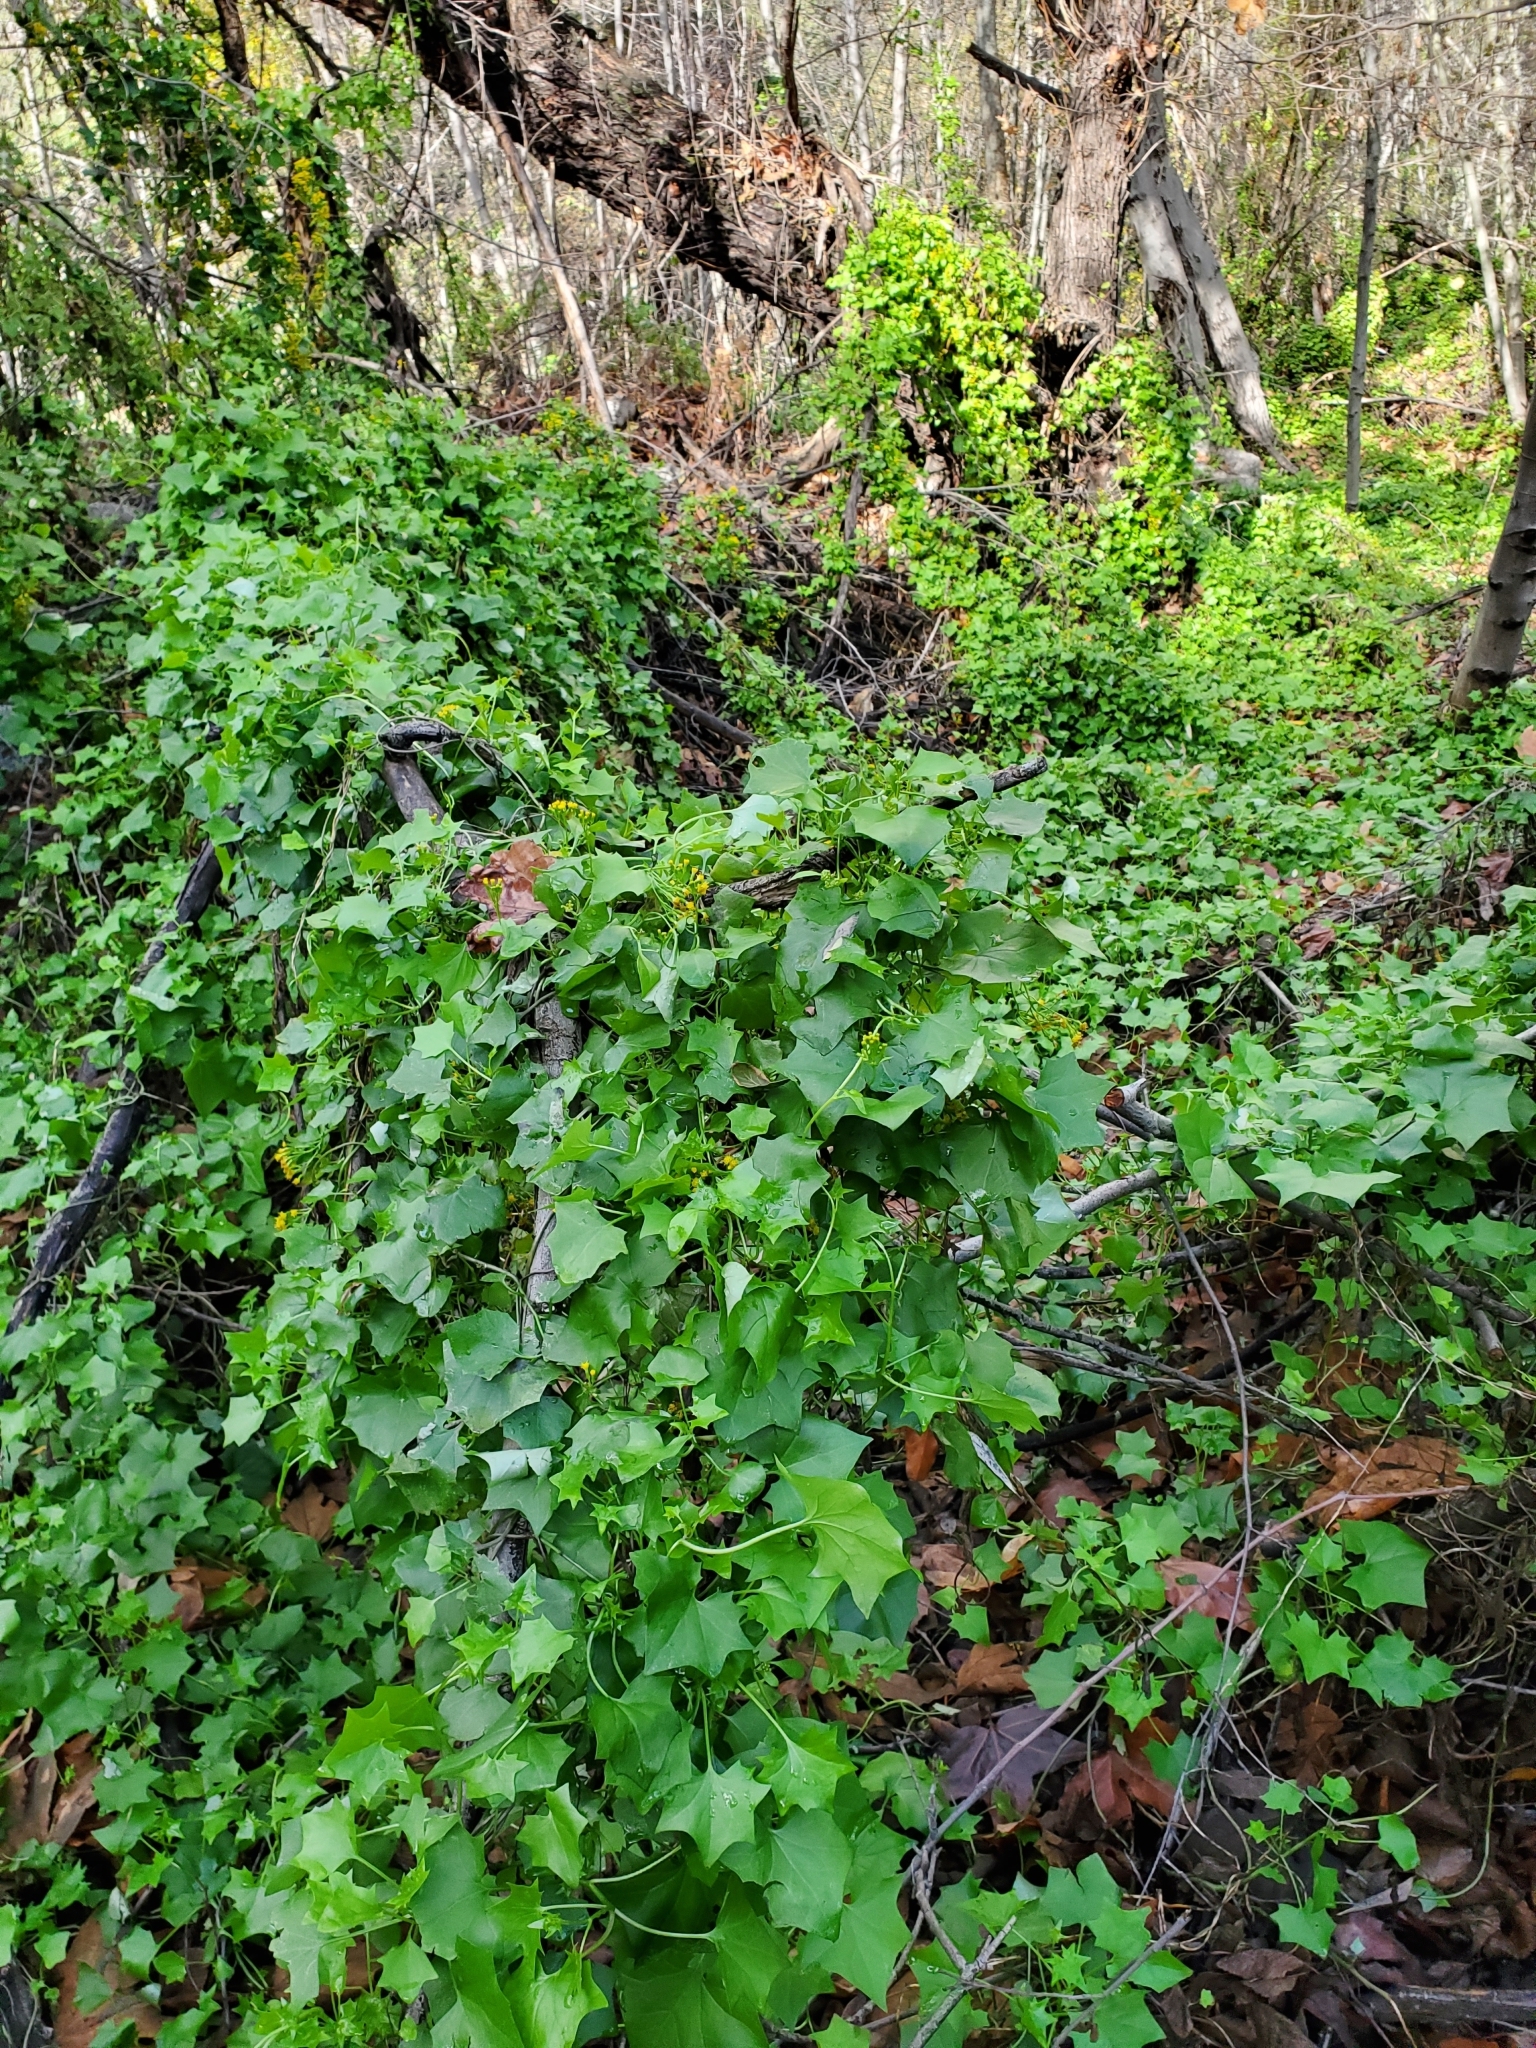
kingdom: Plantae
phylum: Tracheophyta
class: Magnoliopsida
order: Asterales
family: Asteraceae
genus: Delairea
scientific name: Delairea odorata
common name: Cape-ivy
